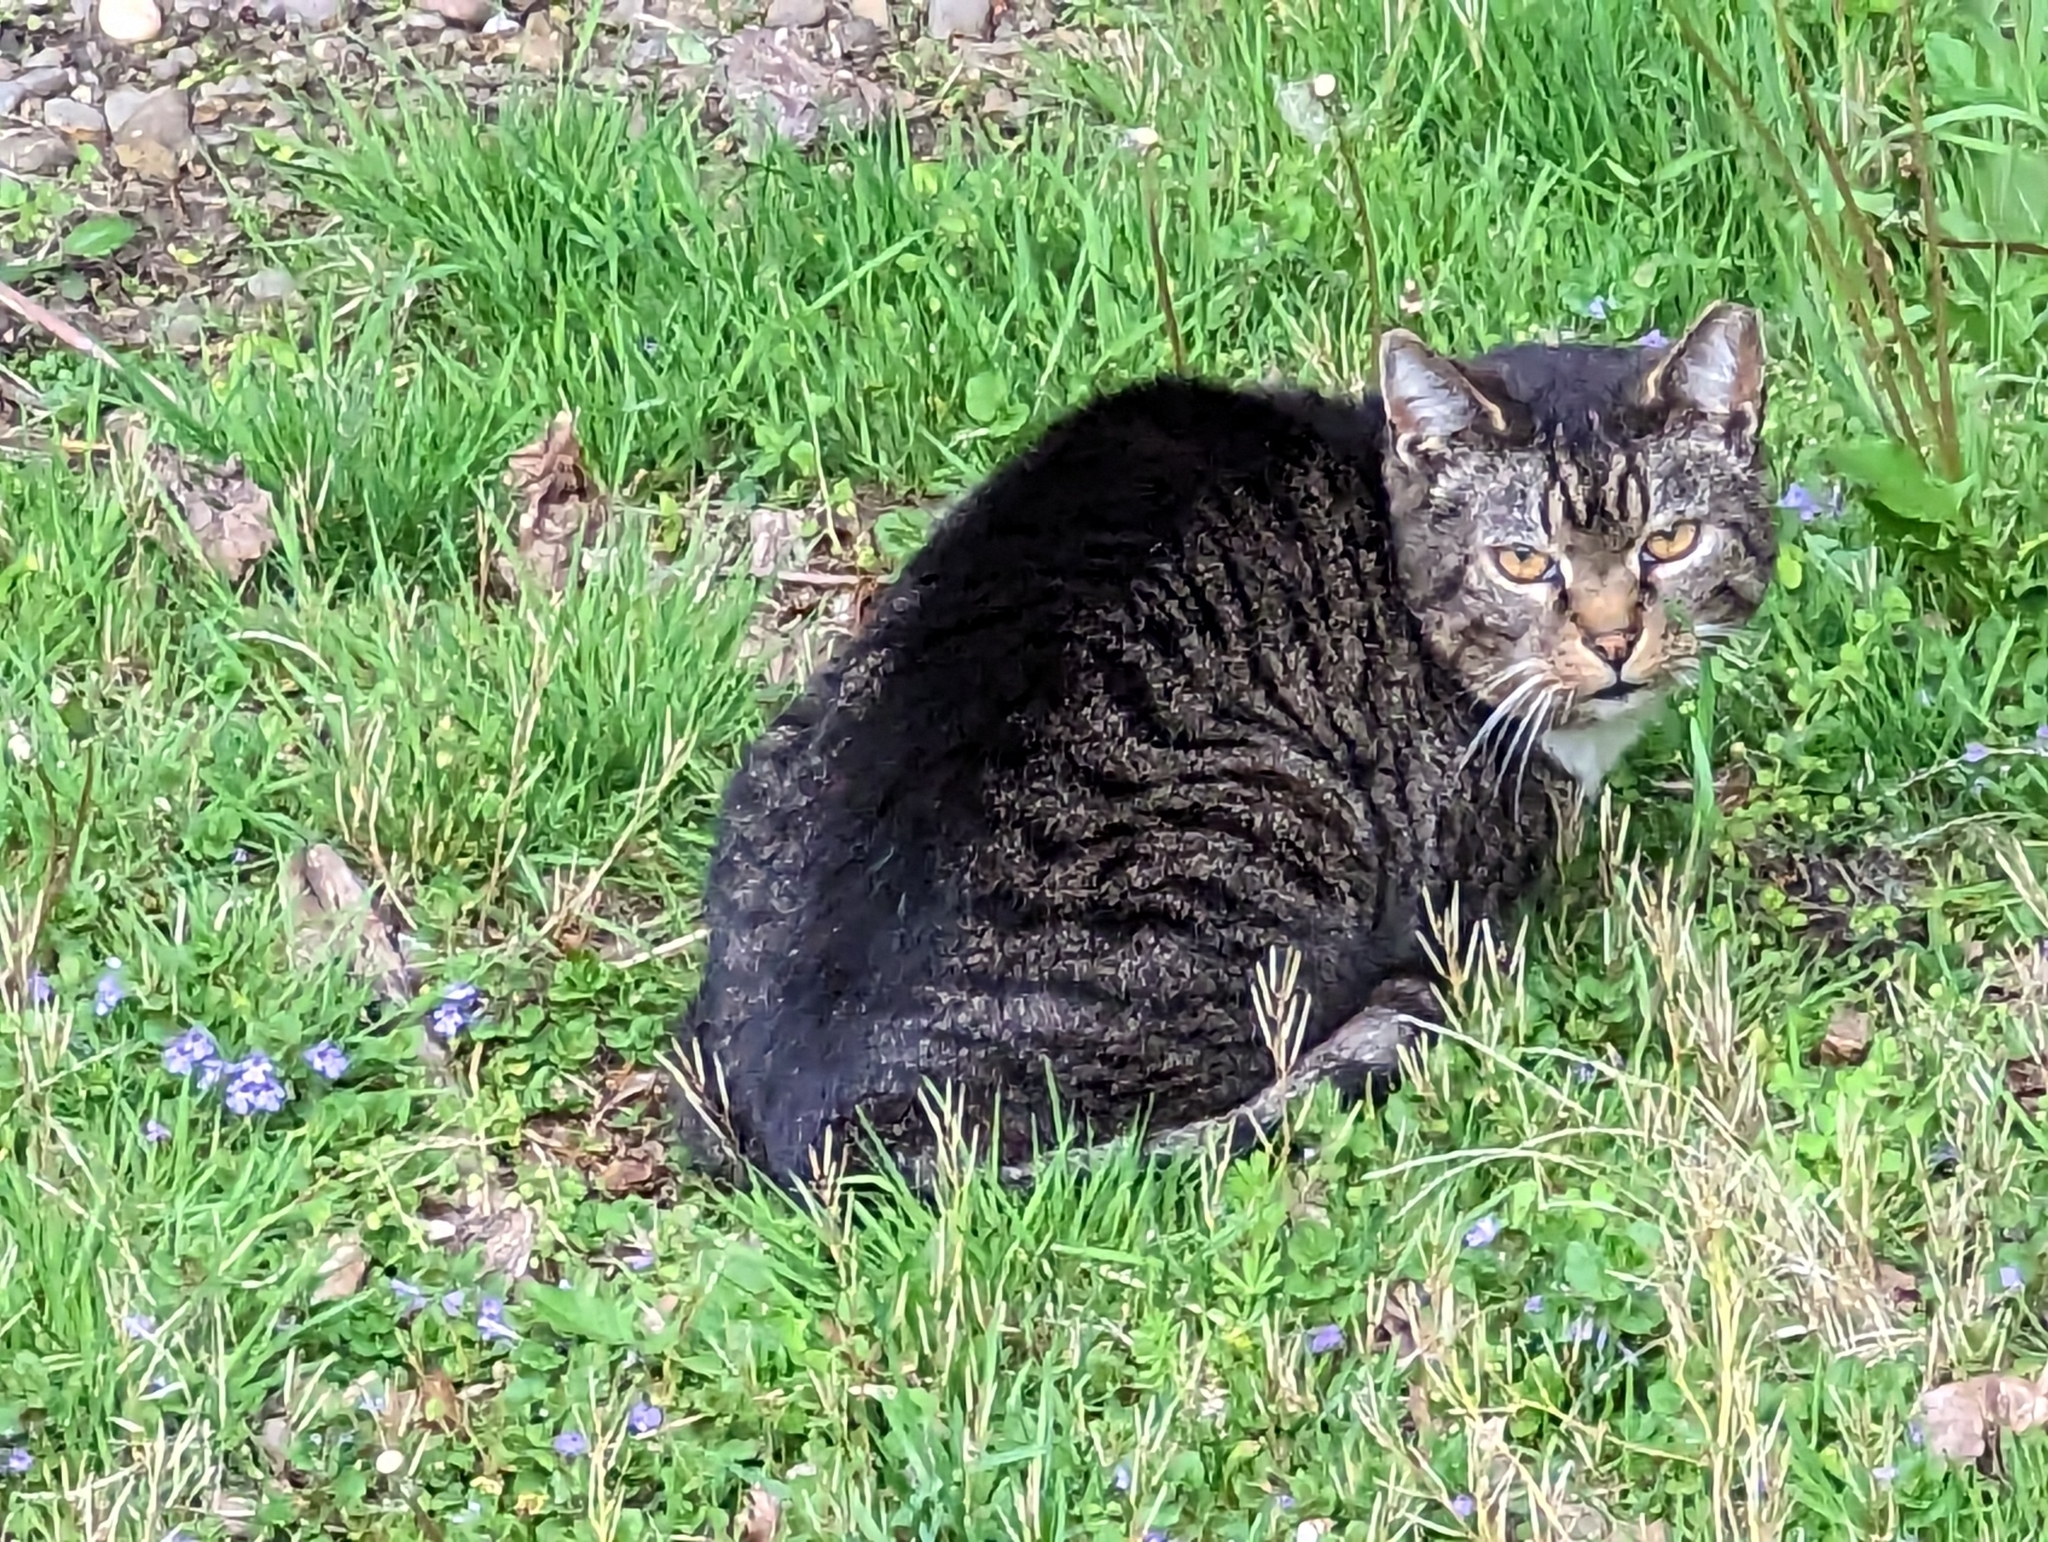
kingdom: Animalia
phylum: Chordata
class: Mammalia
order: Carnivora
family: Felidae
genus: Felis
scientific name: Felis catus
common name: Domestic cat
